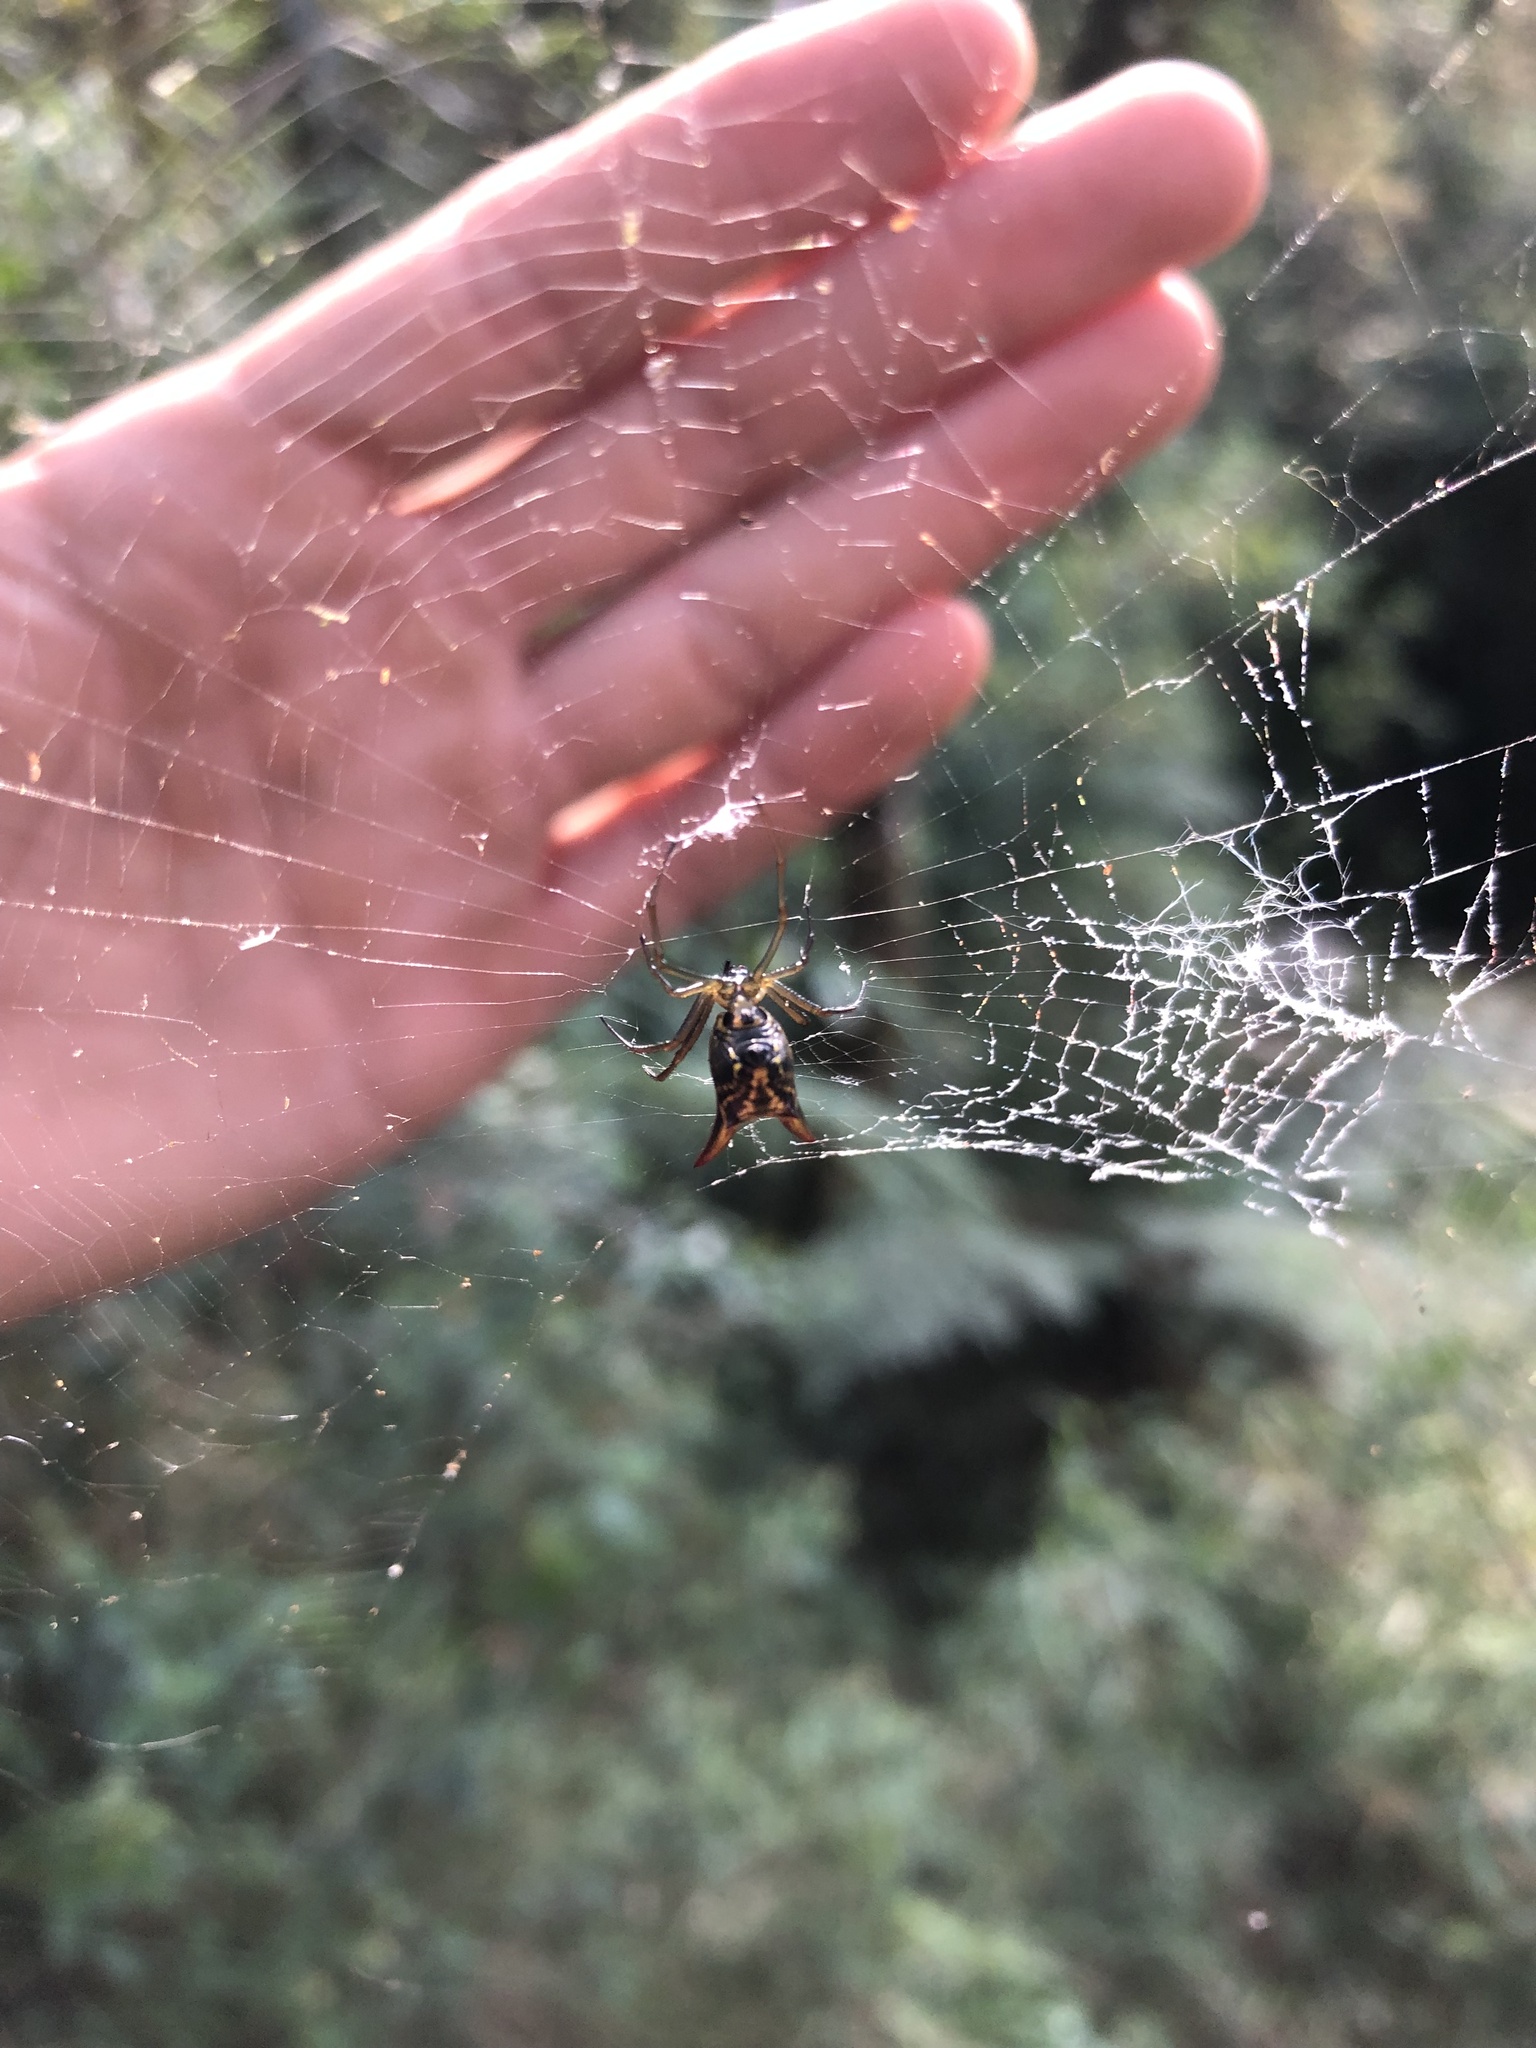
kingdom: Animalia
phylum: Arthropoda
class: Arachnida
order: Araneae
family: Araneidae
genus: Micrathena
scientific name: Micrathena reali
